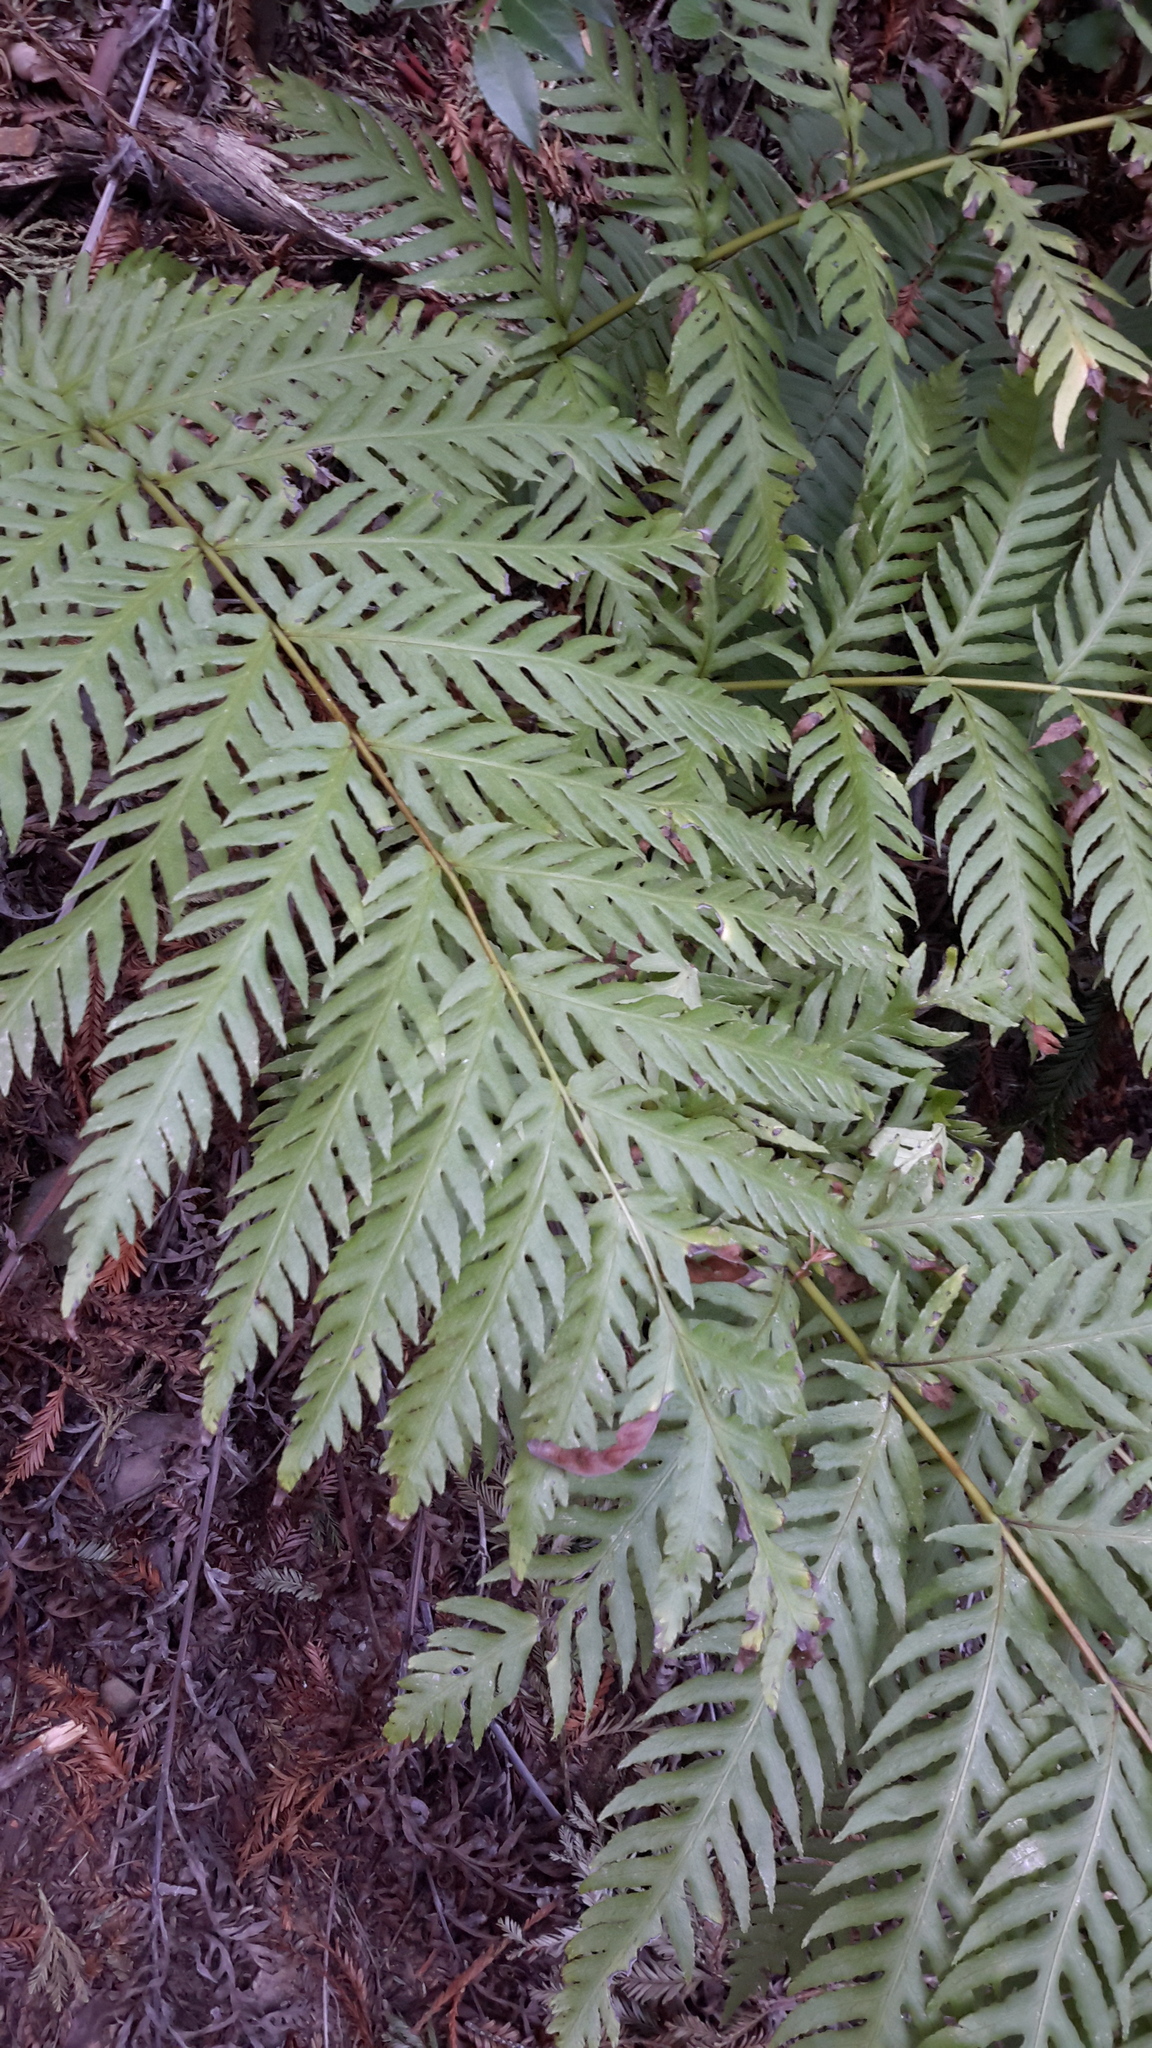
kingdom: Plantae
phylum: Tracheophyta
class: Polypodiopsida
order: Polypodiales
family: Blechnaceae
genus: Woodwardia
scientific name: Woodwardia fimbriata
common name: Giant chain fern
